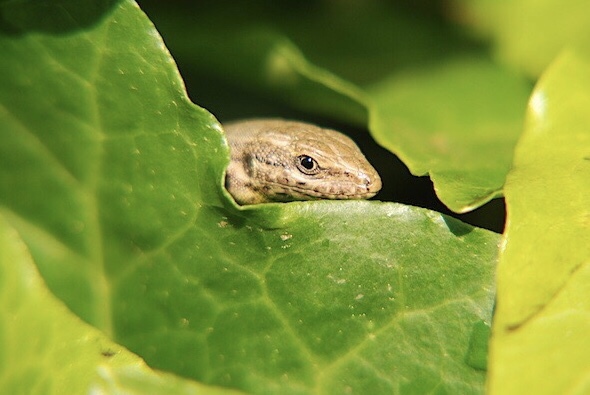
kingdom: Animalia
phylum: Chordata
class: Squamata
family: Lacertidae
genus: Podarcis
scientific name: Podarcis muralis
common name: Common wall lizard
